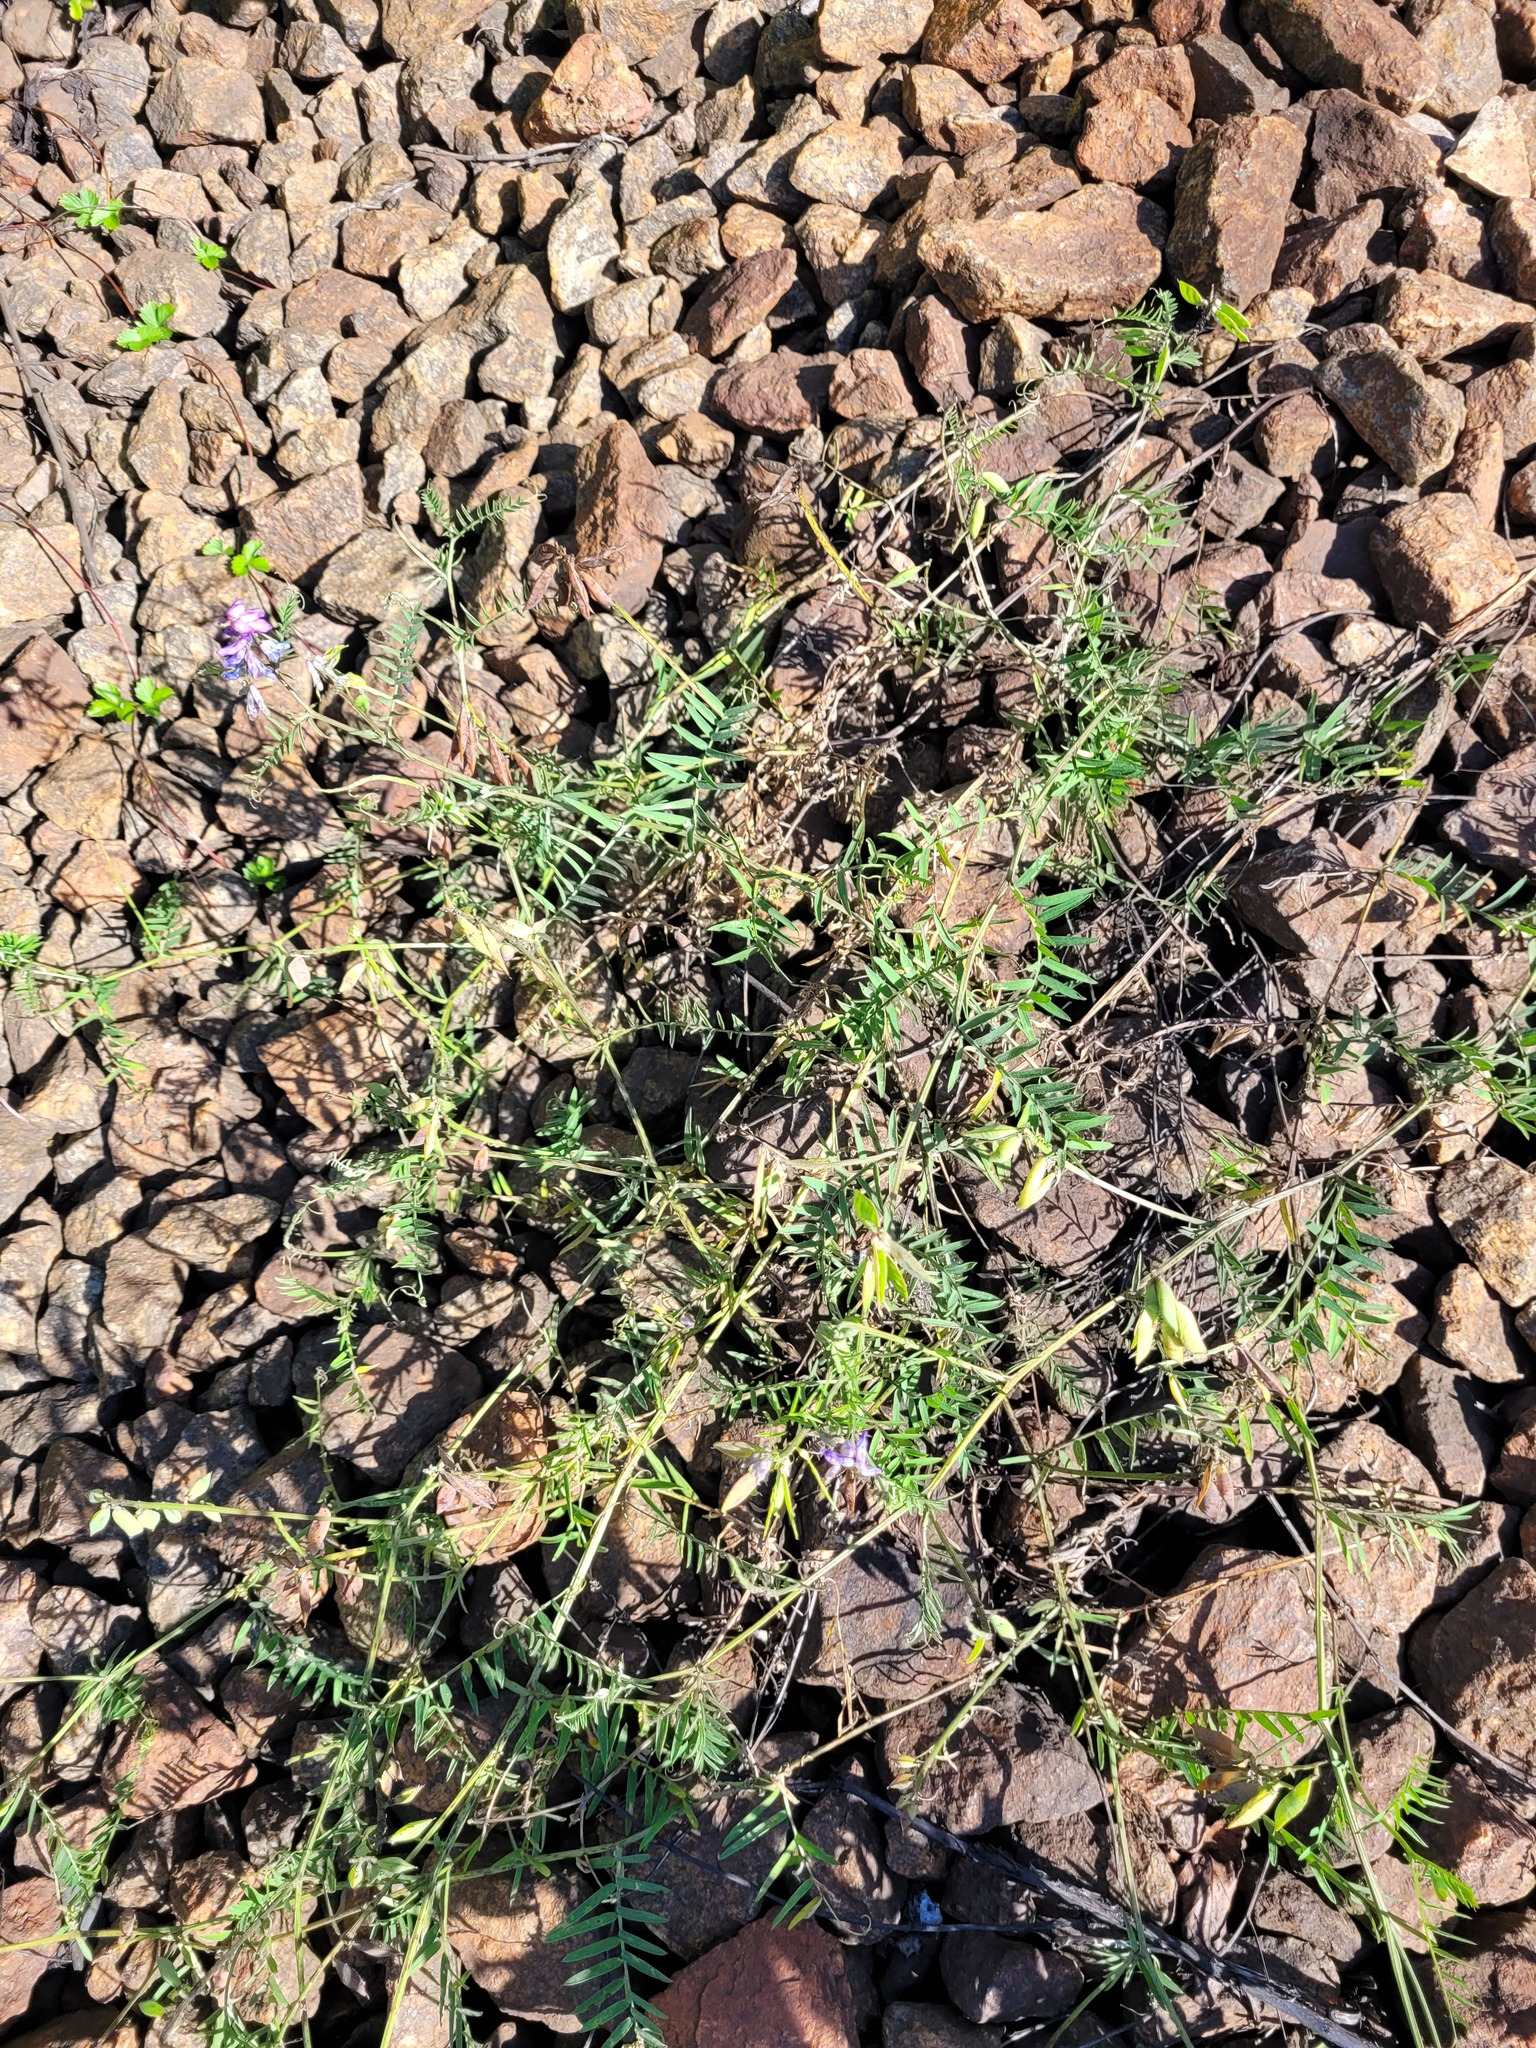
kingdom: Plantae
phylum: Tracheophyta
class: Magnoliopsida
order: Fabales
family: Fabaceae
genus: Vicia
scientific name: Vicia cracca
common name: Bird vetch
